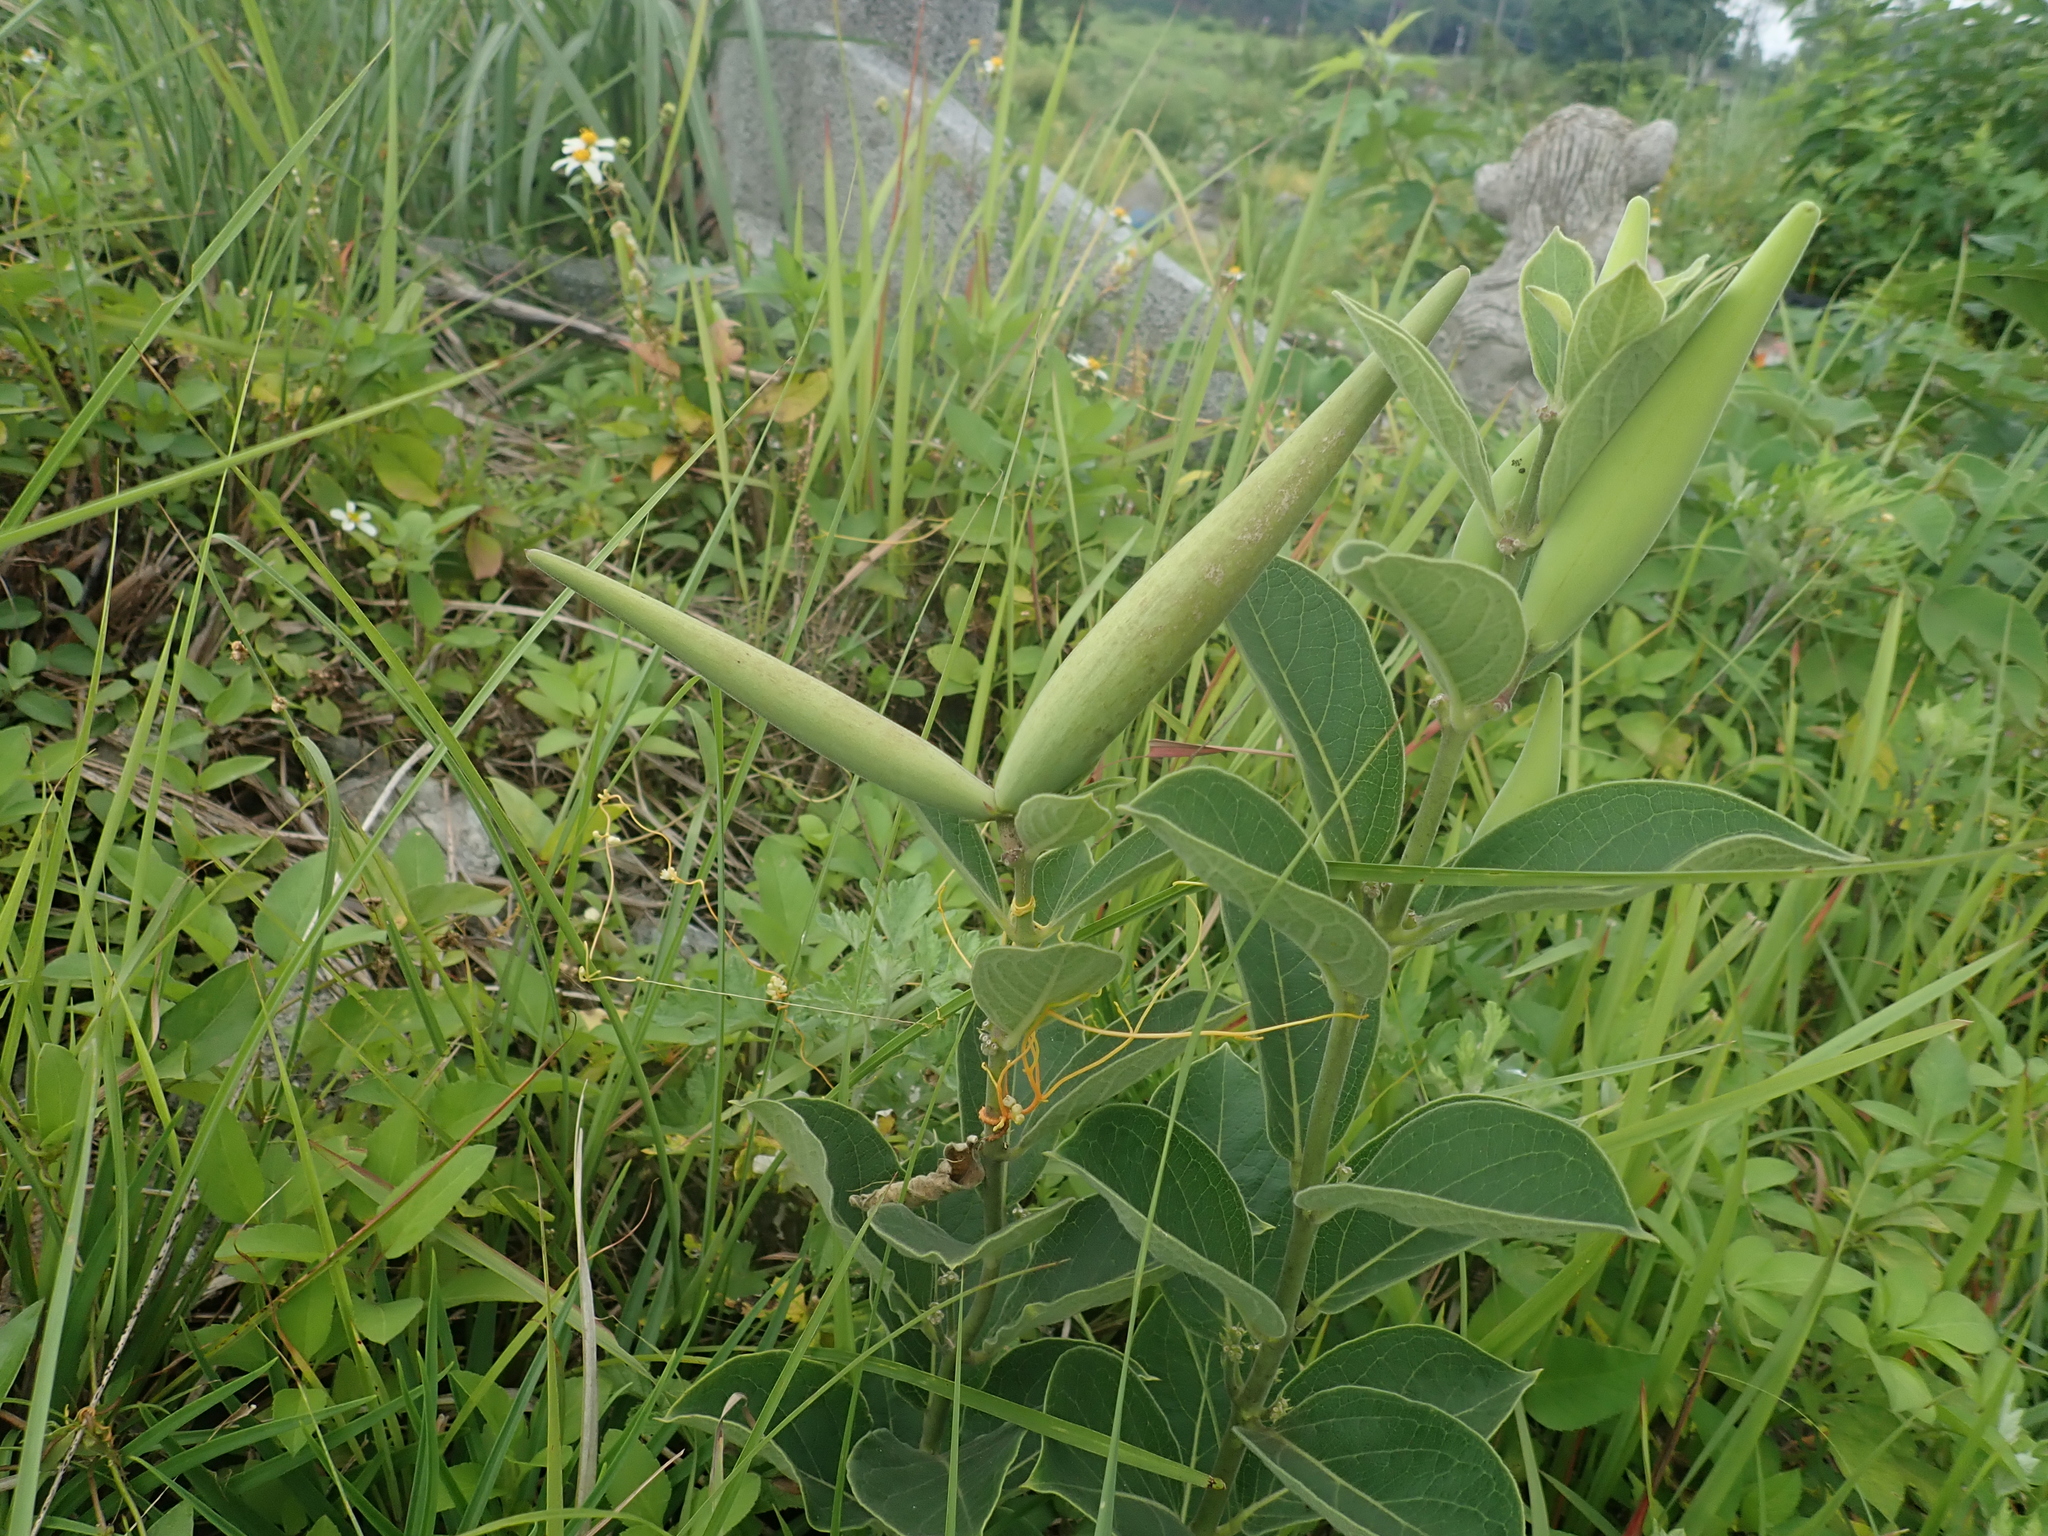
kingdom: Plantae
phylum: Tracheophyta
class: Magnoliopsida
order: Gentianales
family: Apocynaceae
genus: Vincetoxicum
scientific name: Vincetoxicum atratum
